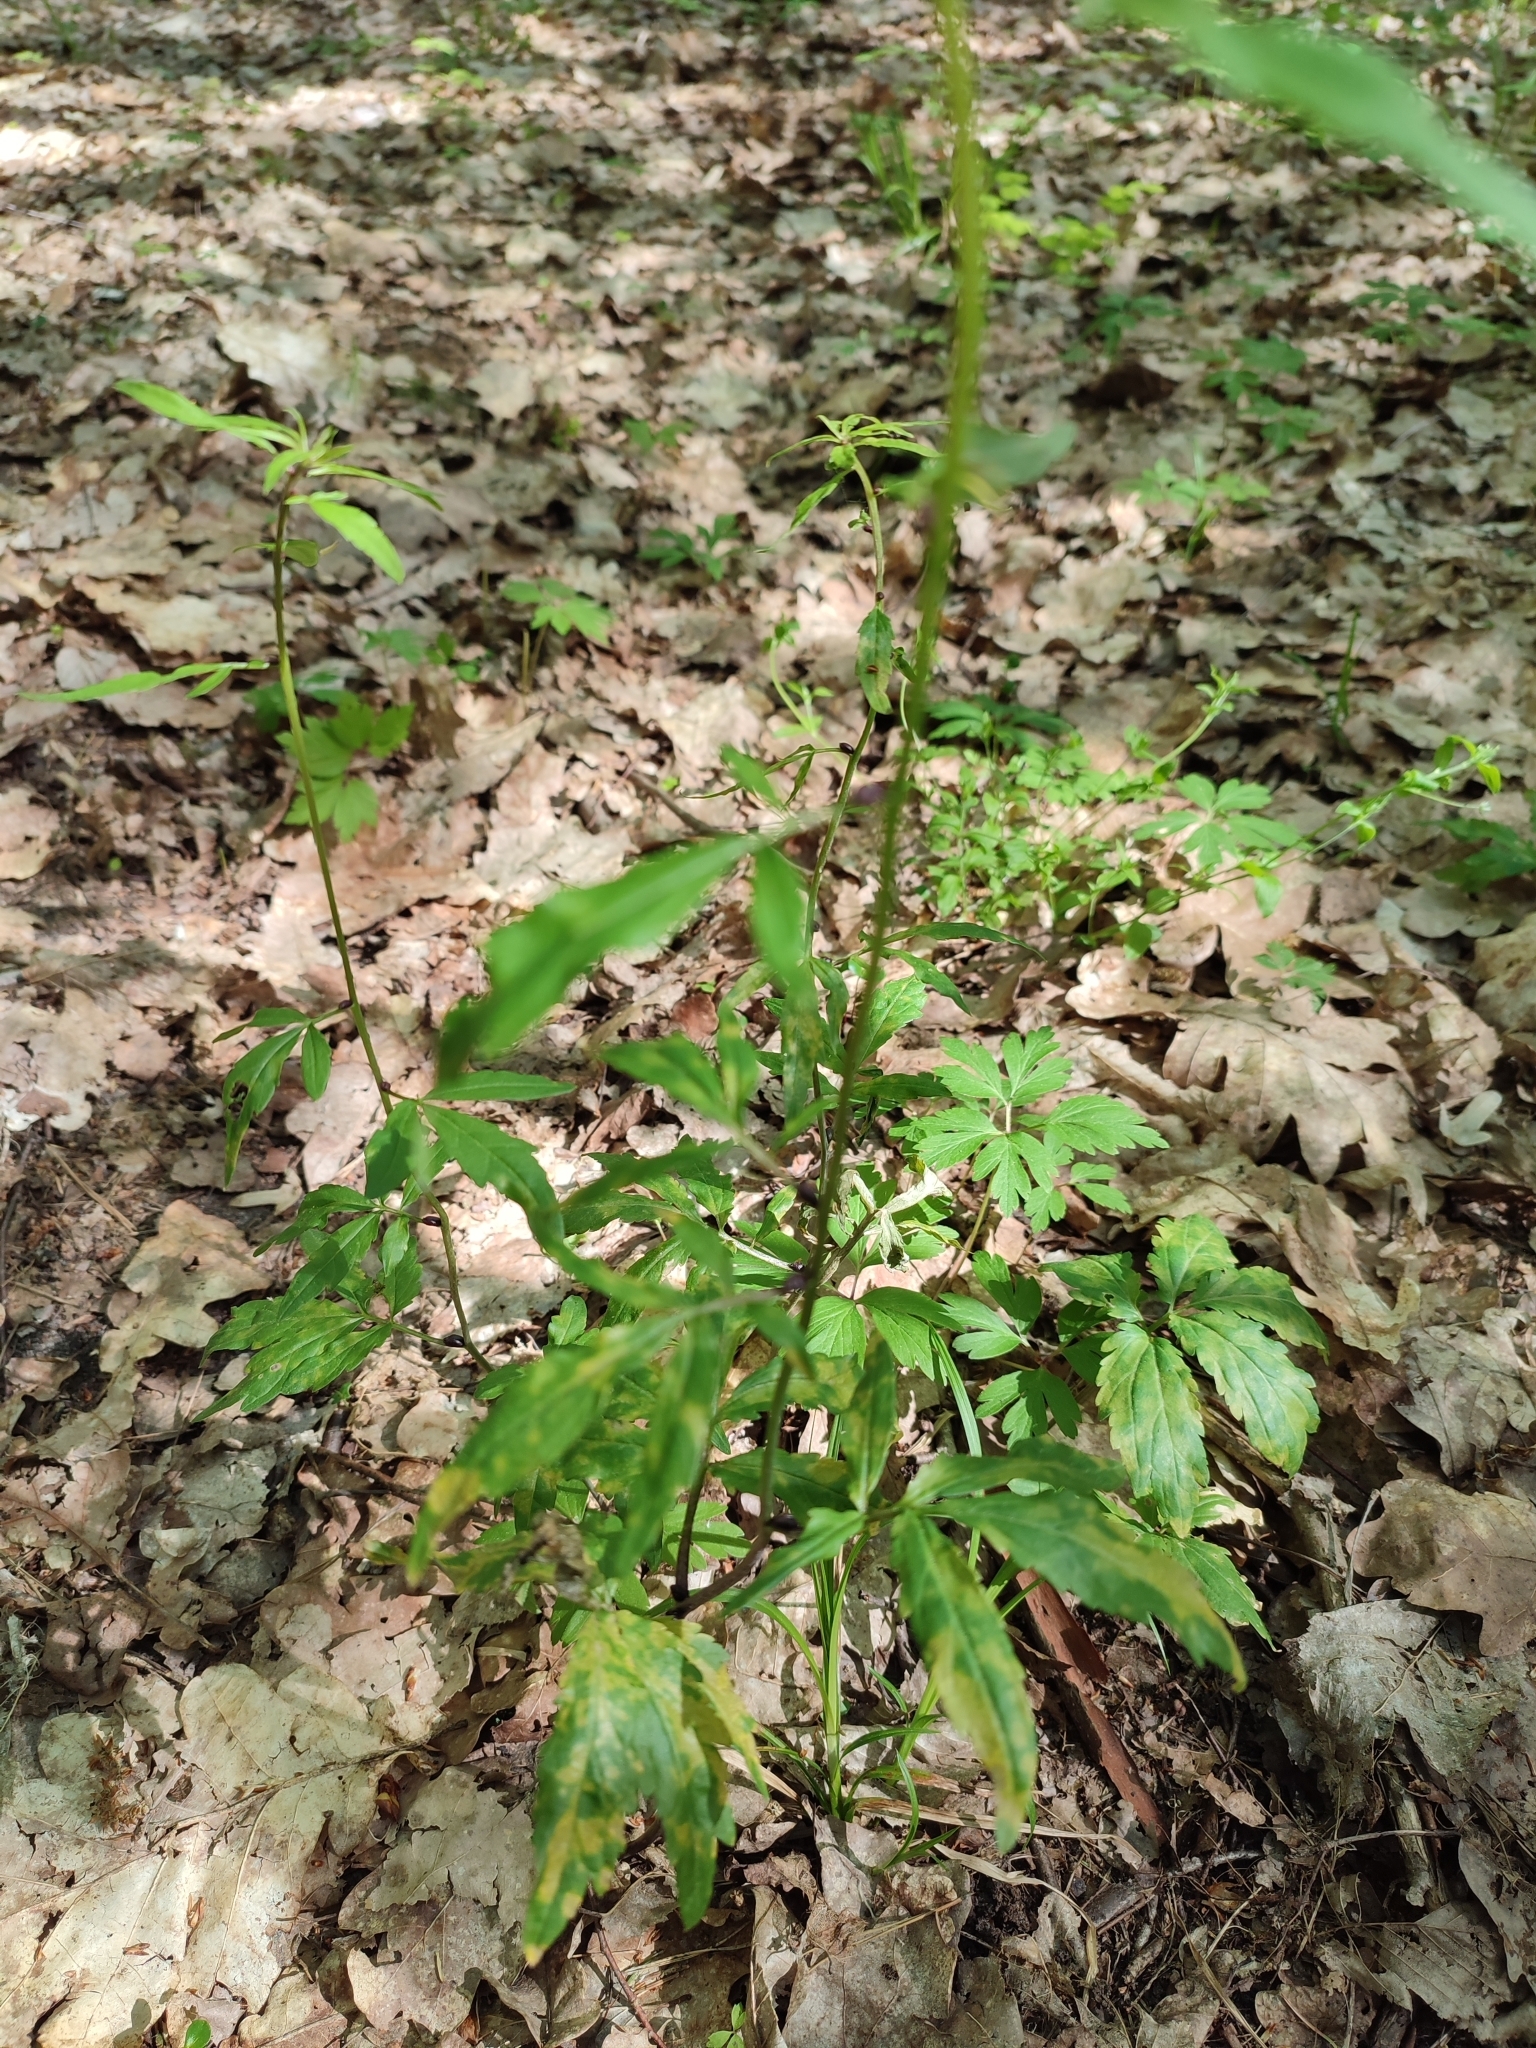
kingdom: Plantae
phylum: Tracheophyta
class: Magnoliopsida
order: Brassicales
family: Brassicaceae
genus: Cardamine
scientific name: Cardamine bulbifera
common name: Coralroot bittercress
